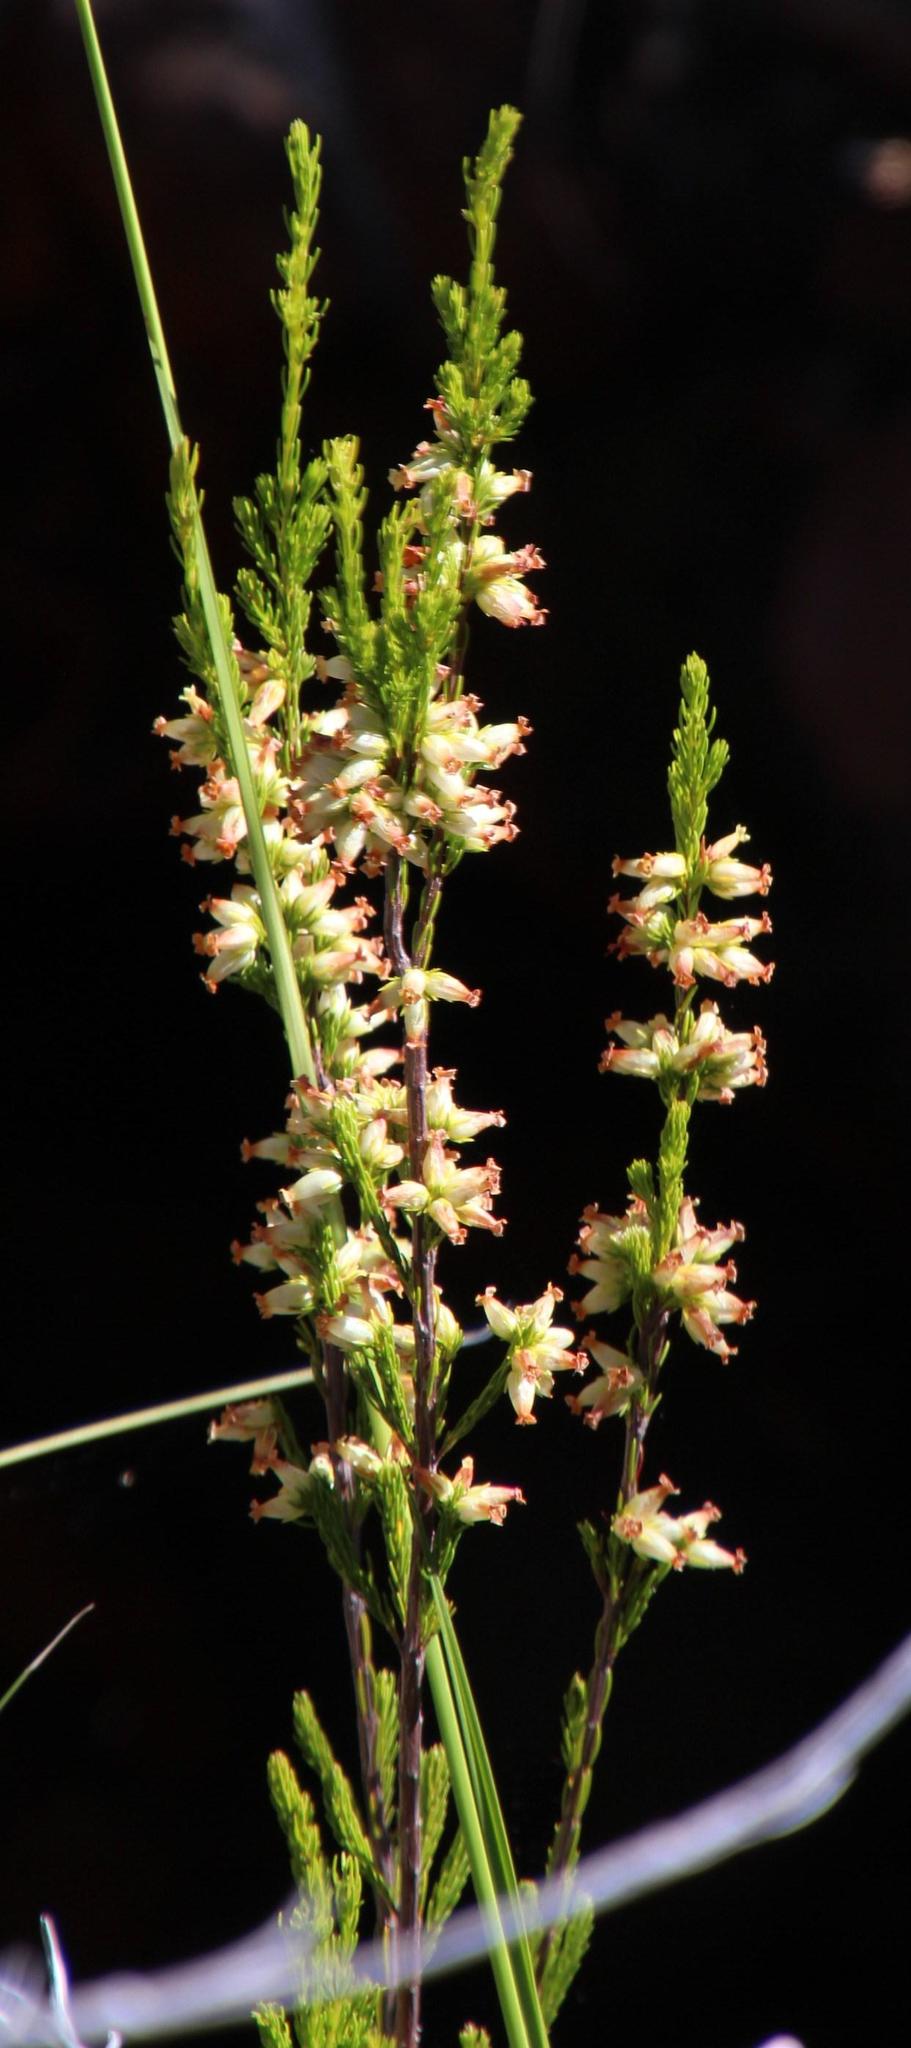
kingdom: Plantae
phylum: Tracheophyta
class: Magnoliopsida
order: Ericales
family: Ericaceae
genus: Erica
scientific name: Erica caffra
